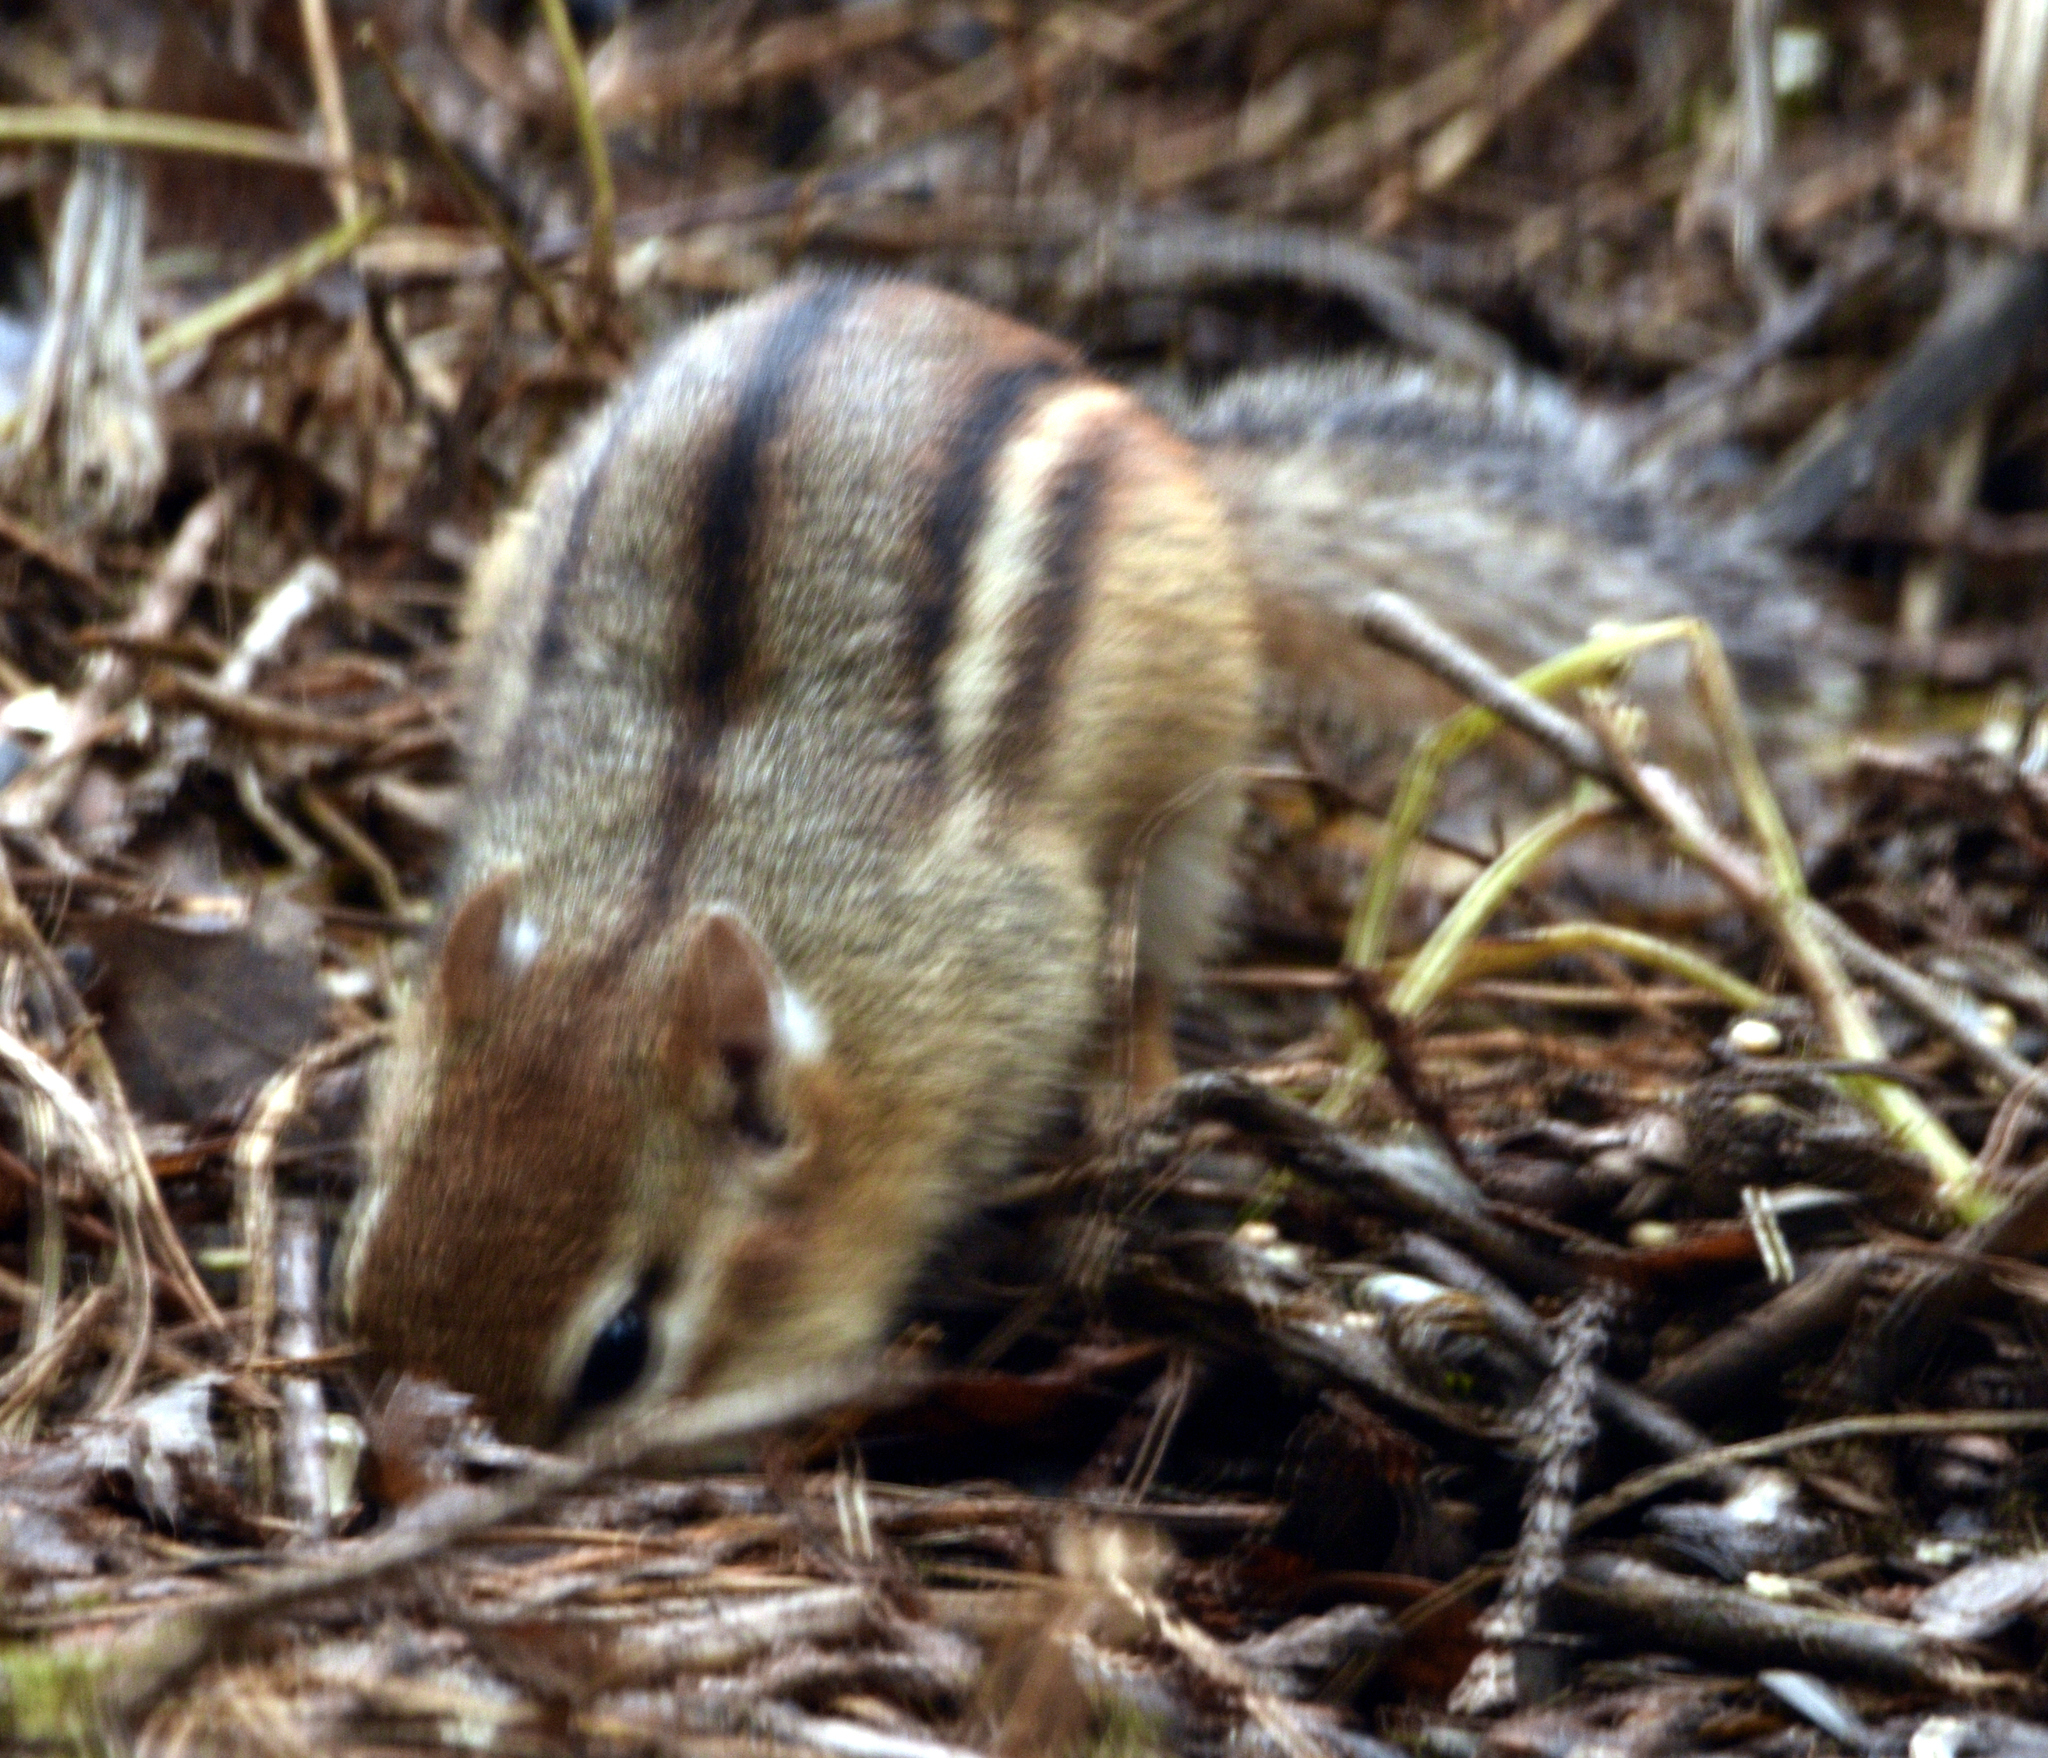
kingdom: Animalia
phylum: Chordata
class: Mammalia
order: Rodentia
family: Sciuridae
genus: Tamias
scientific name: Tamias striatus
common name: Eastern chipmunk
